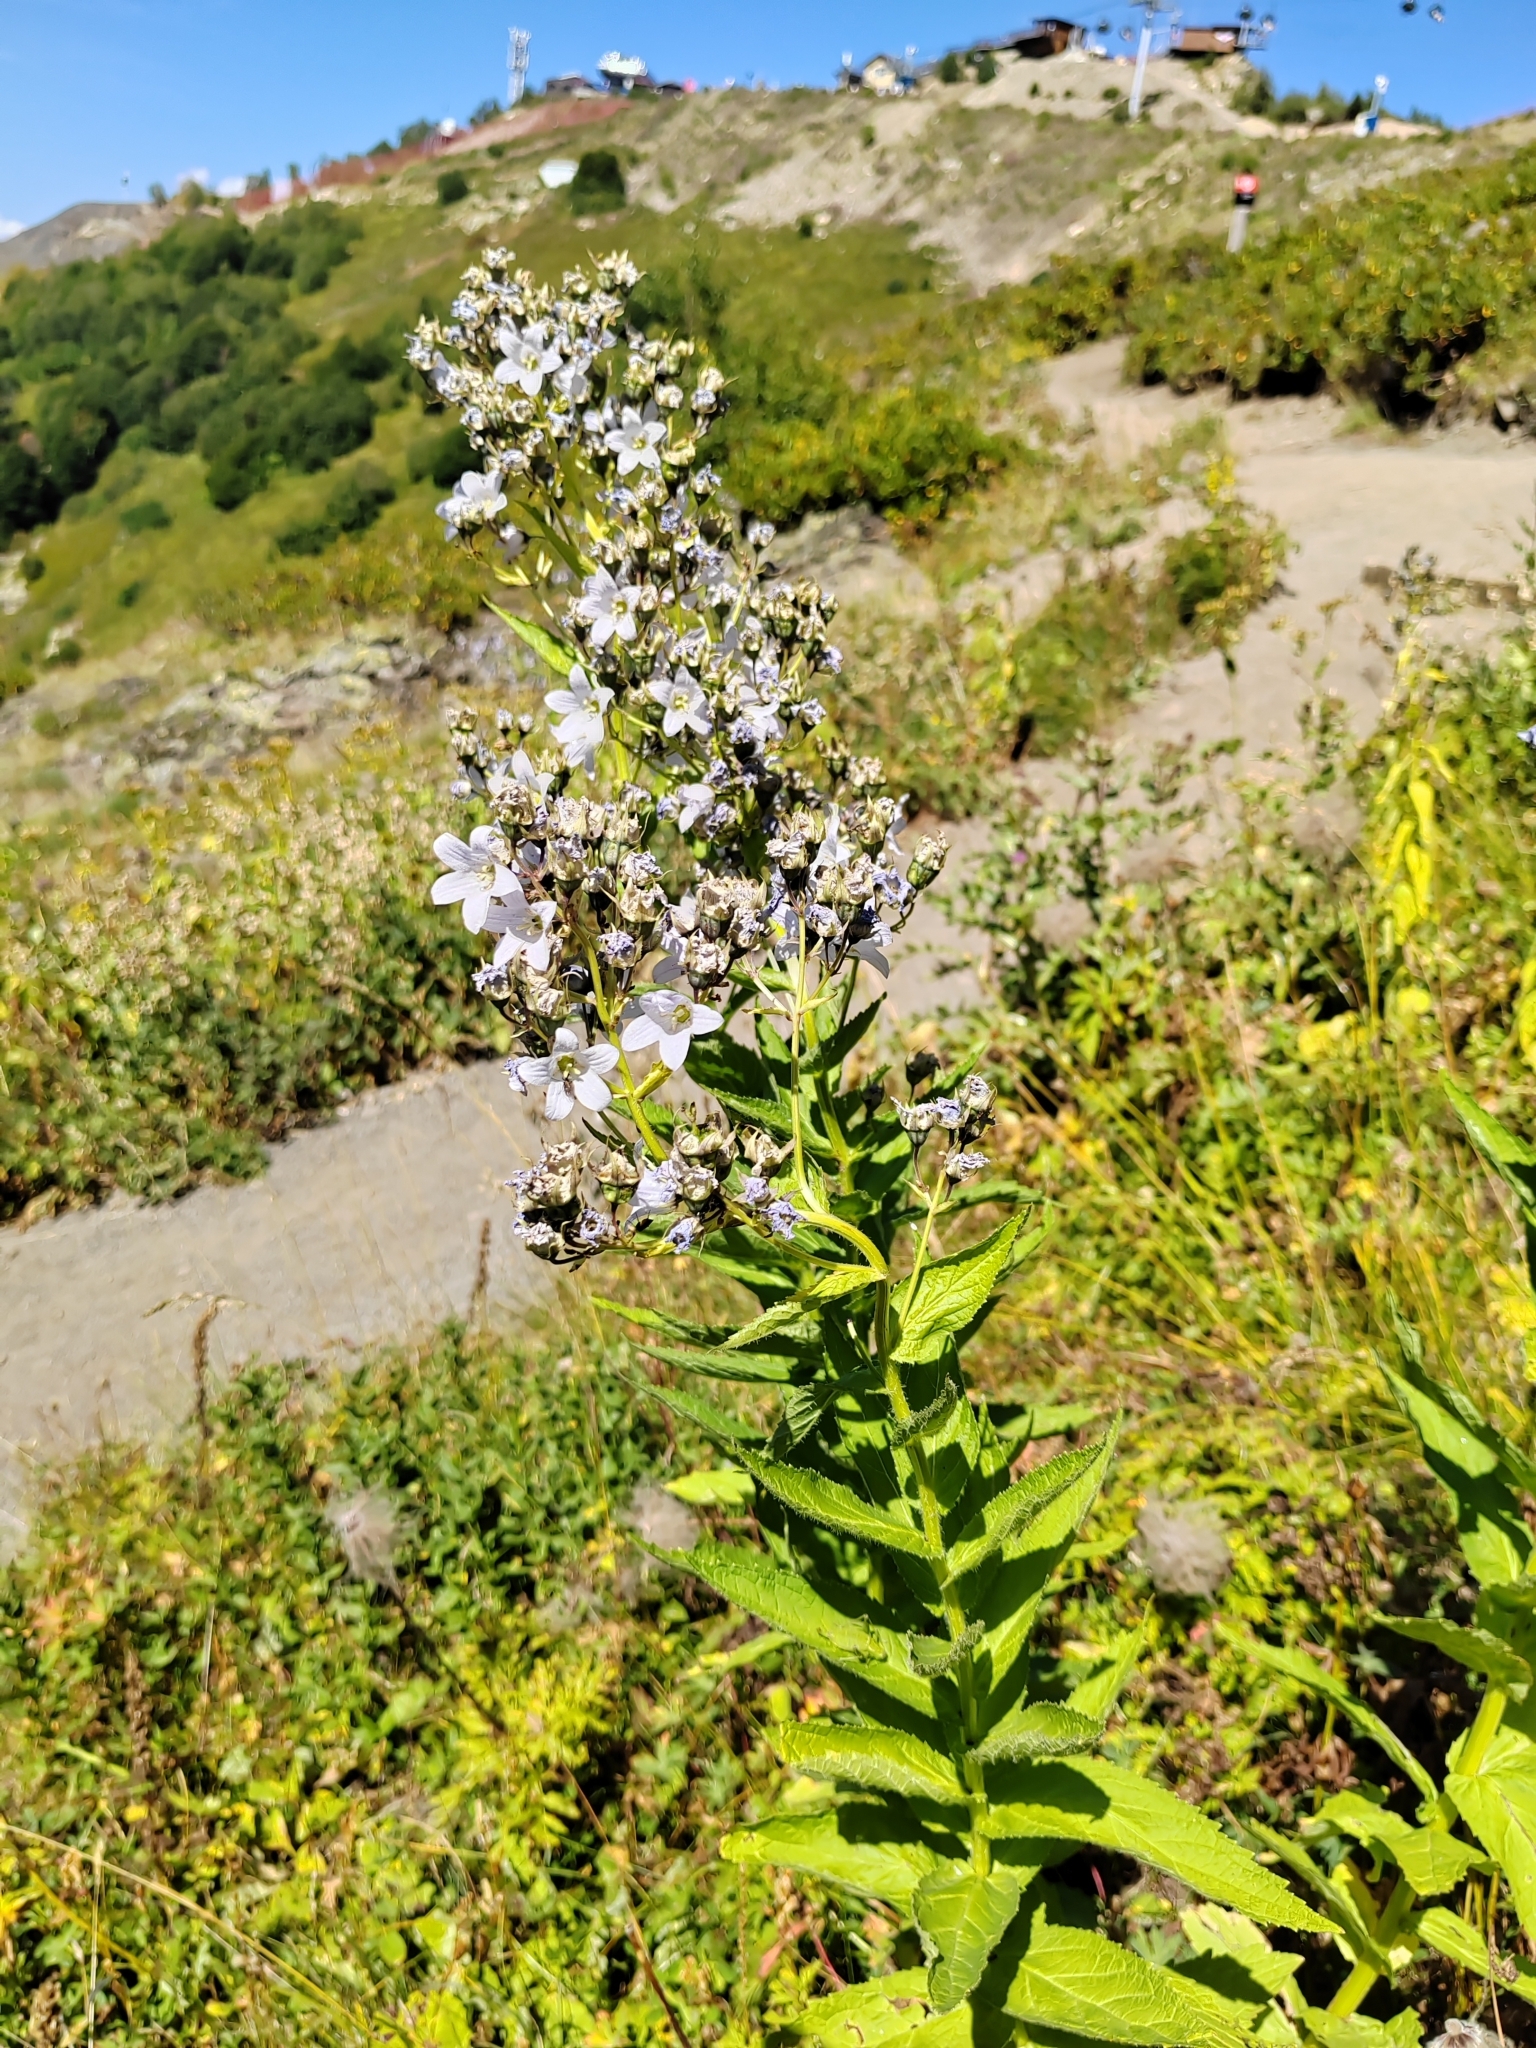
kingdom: Plantae
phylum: Tracheophyta
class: Magnoliopsida
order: Asterales
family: Campanulaceae
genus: Campanula
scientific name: Campanula lactiflora
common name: Milky bellflower
